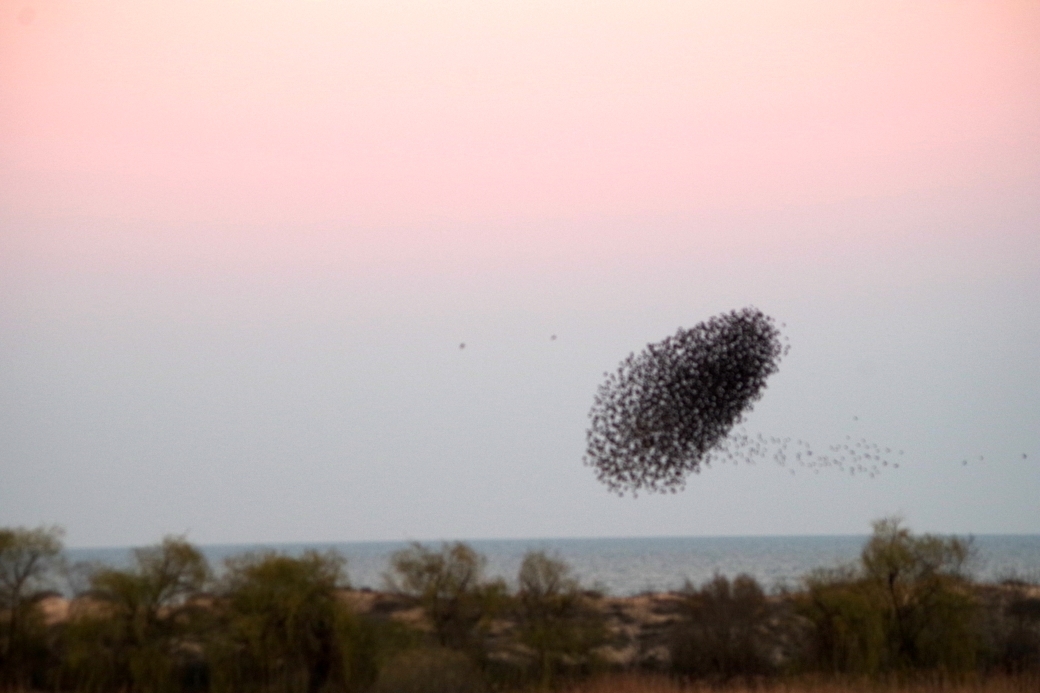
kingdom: Animalia
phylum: Chordata
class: Aves
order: Passeriformes
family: Sturnidae
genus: Sturnus
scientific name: Sturnus vulgaris
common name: Common starling
